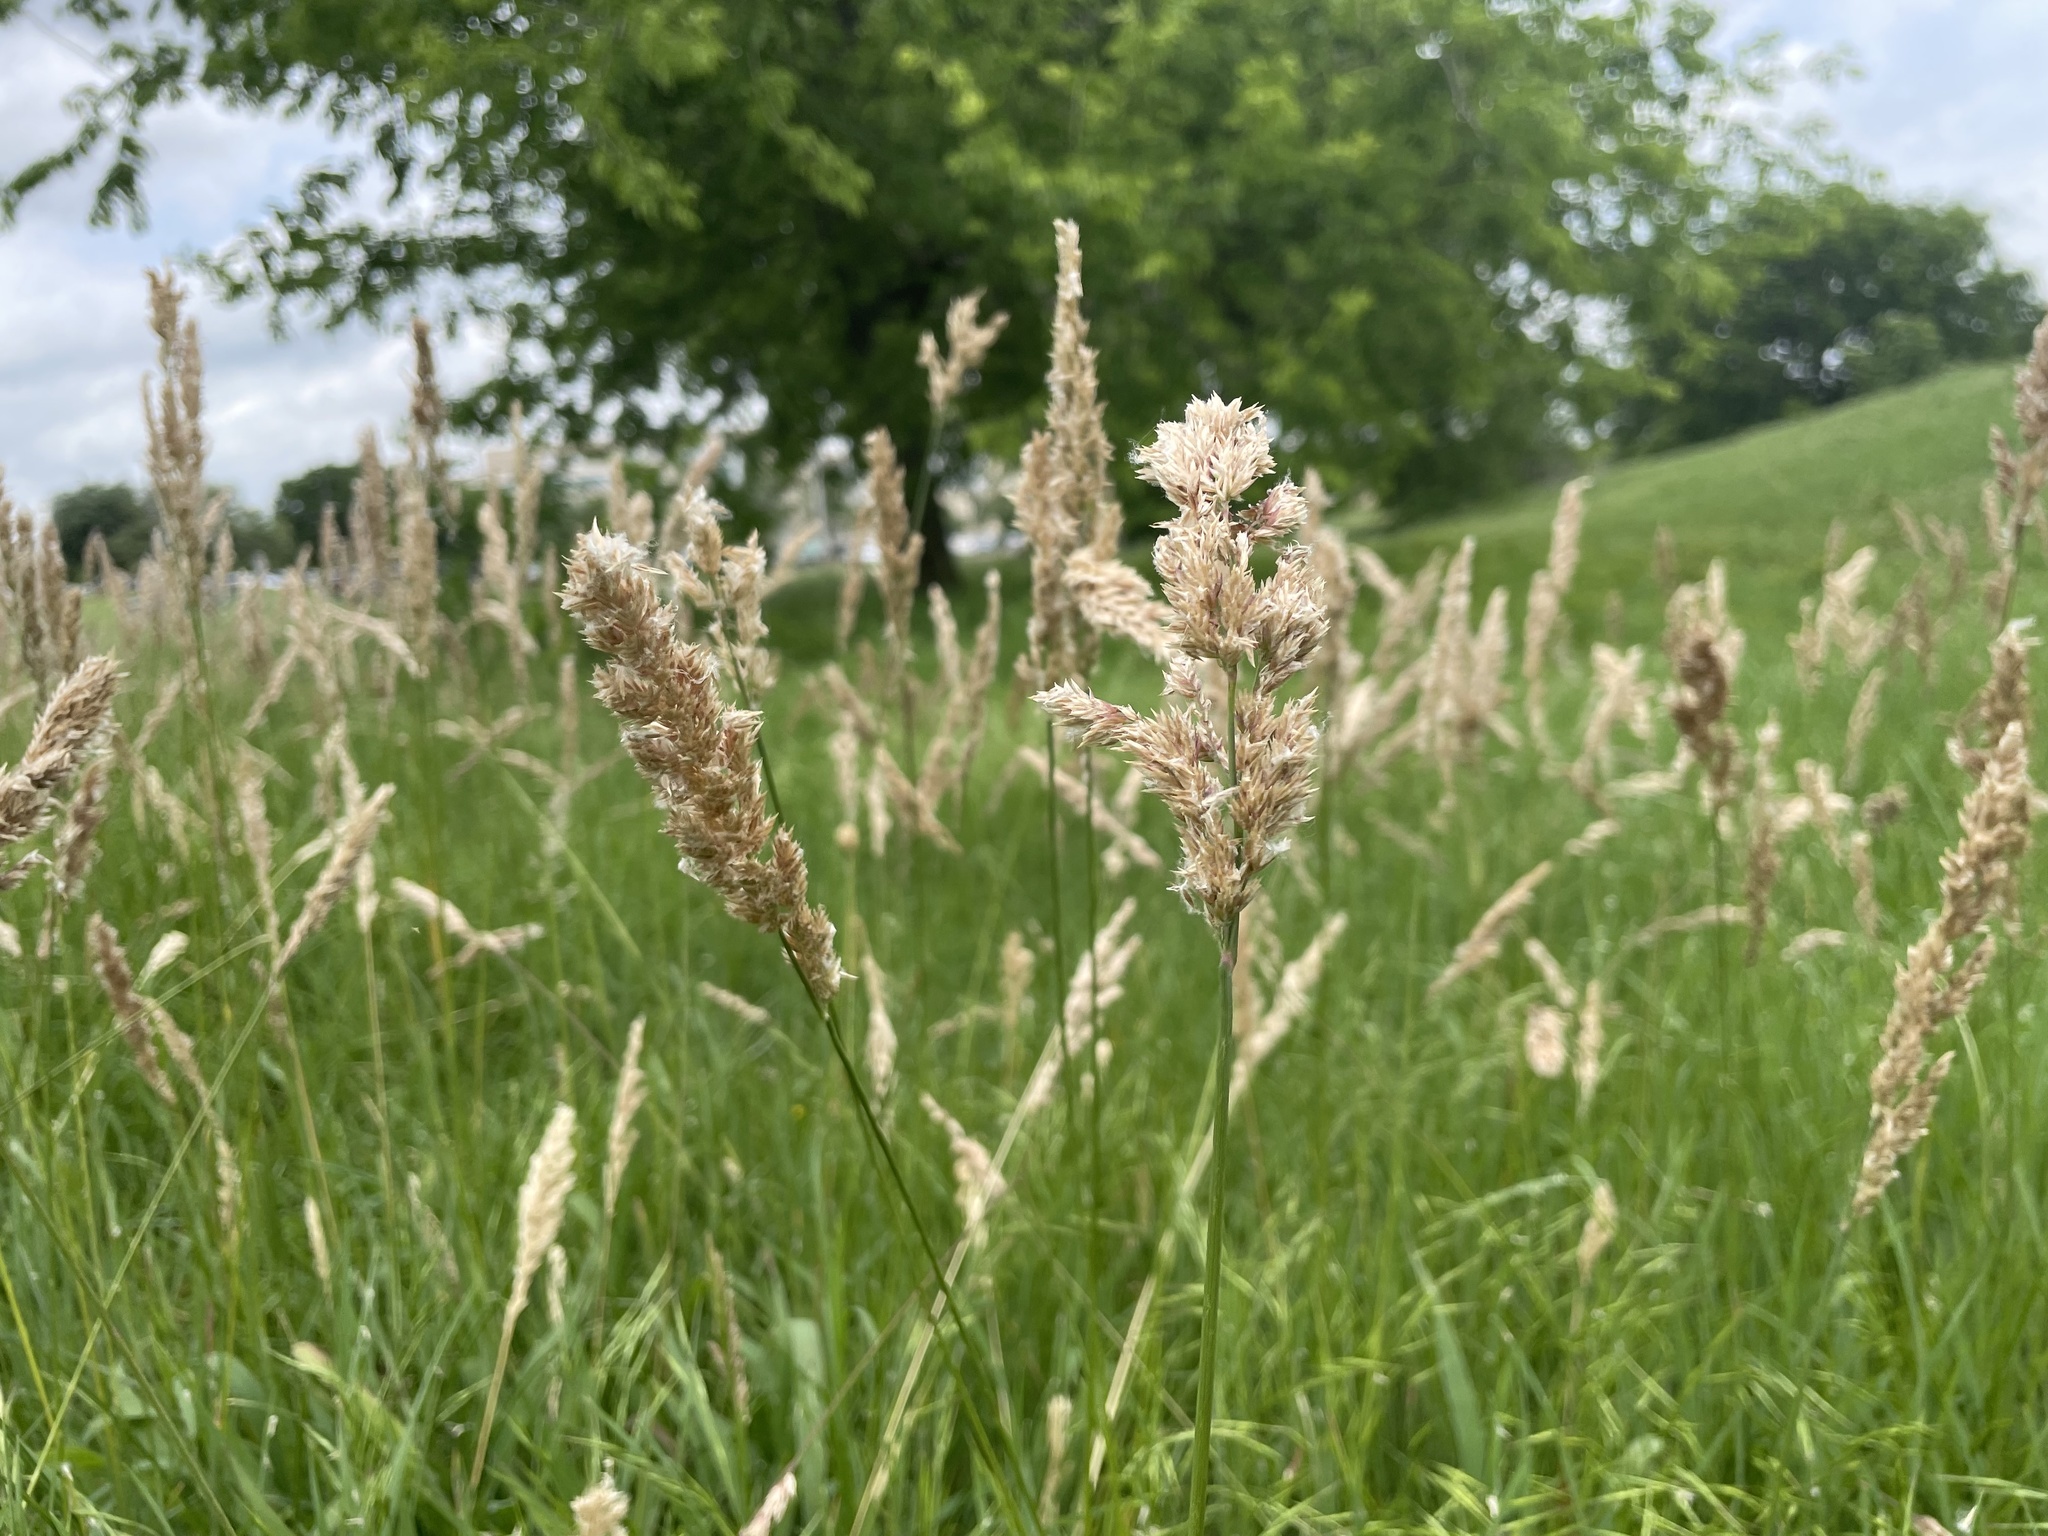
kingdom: Plantae
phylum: Tracheophyta
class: Liliopsida
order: Poales
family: Poaceae
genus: Poa
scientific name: Poa arachnifera
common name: Texas bluegrass
